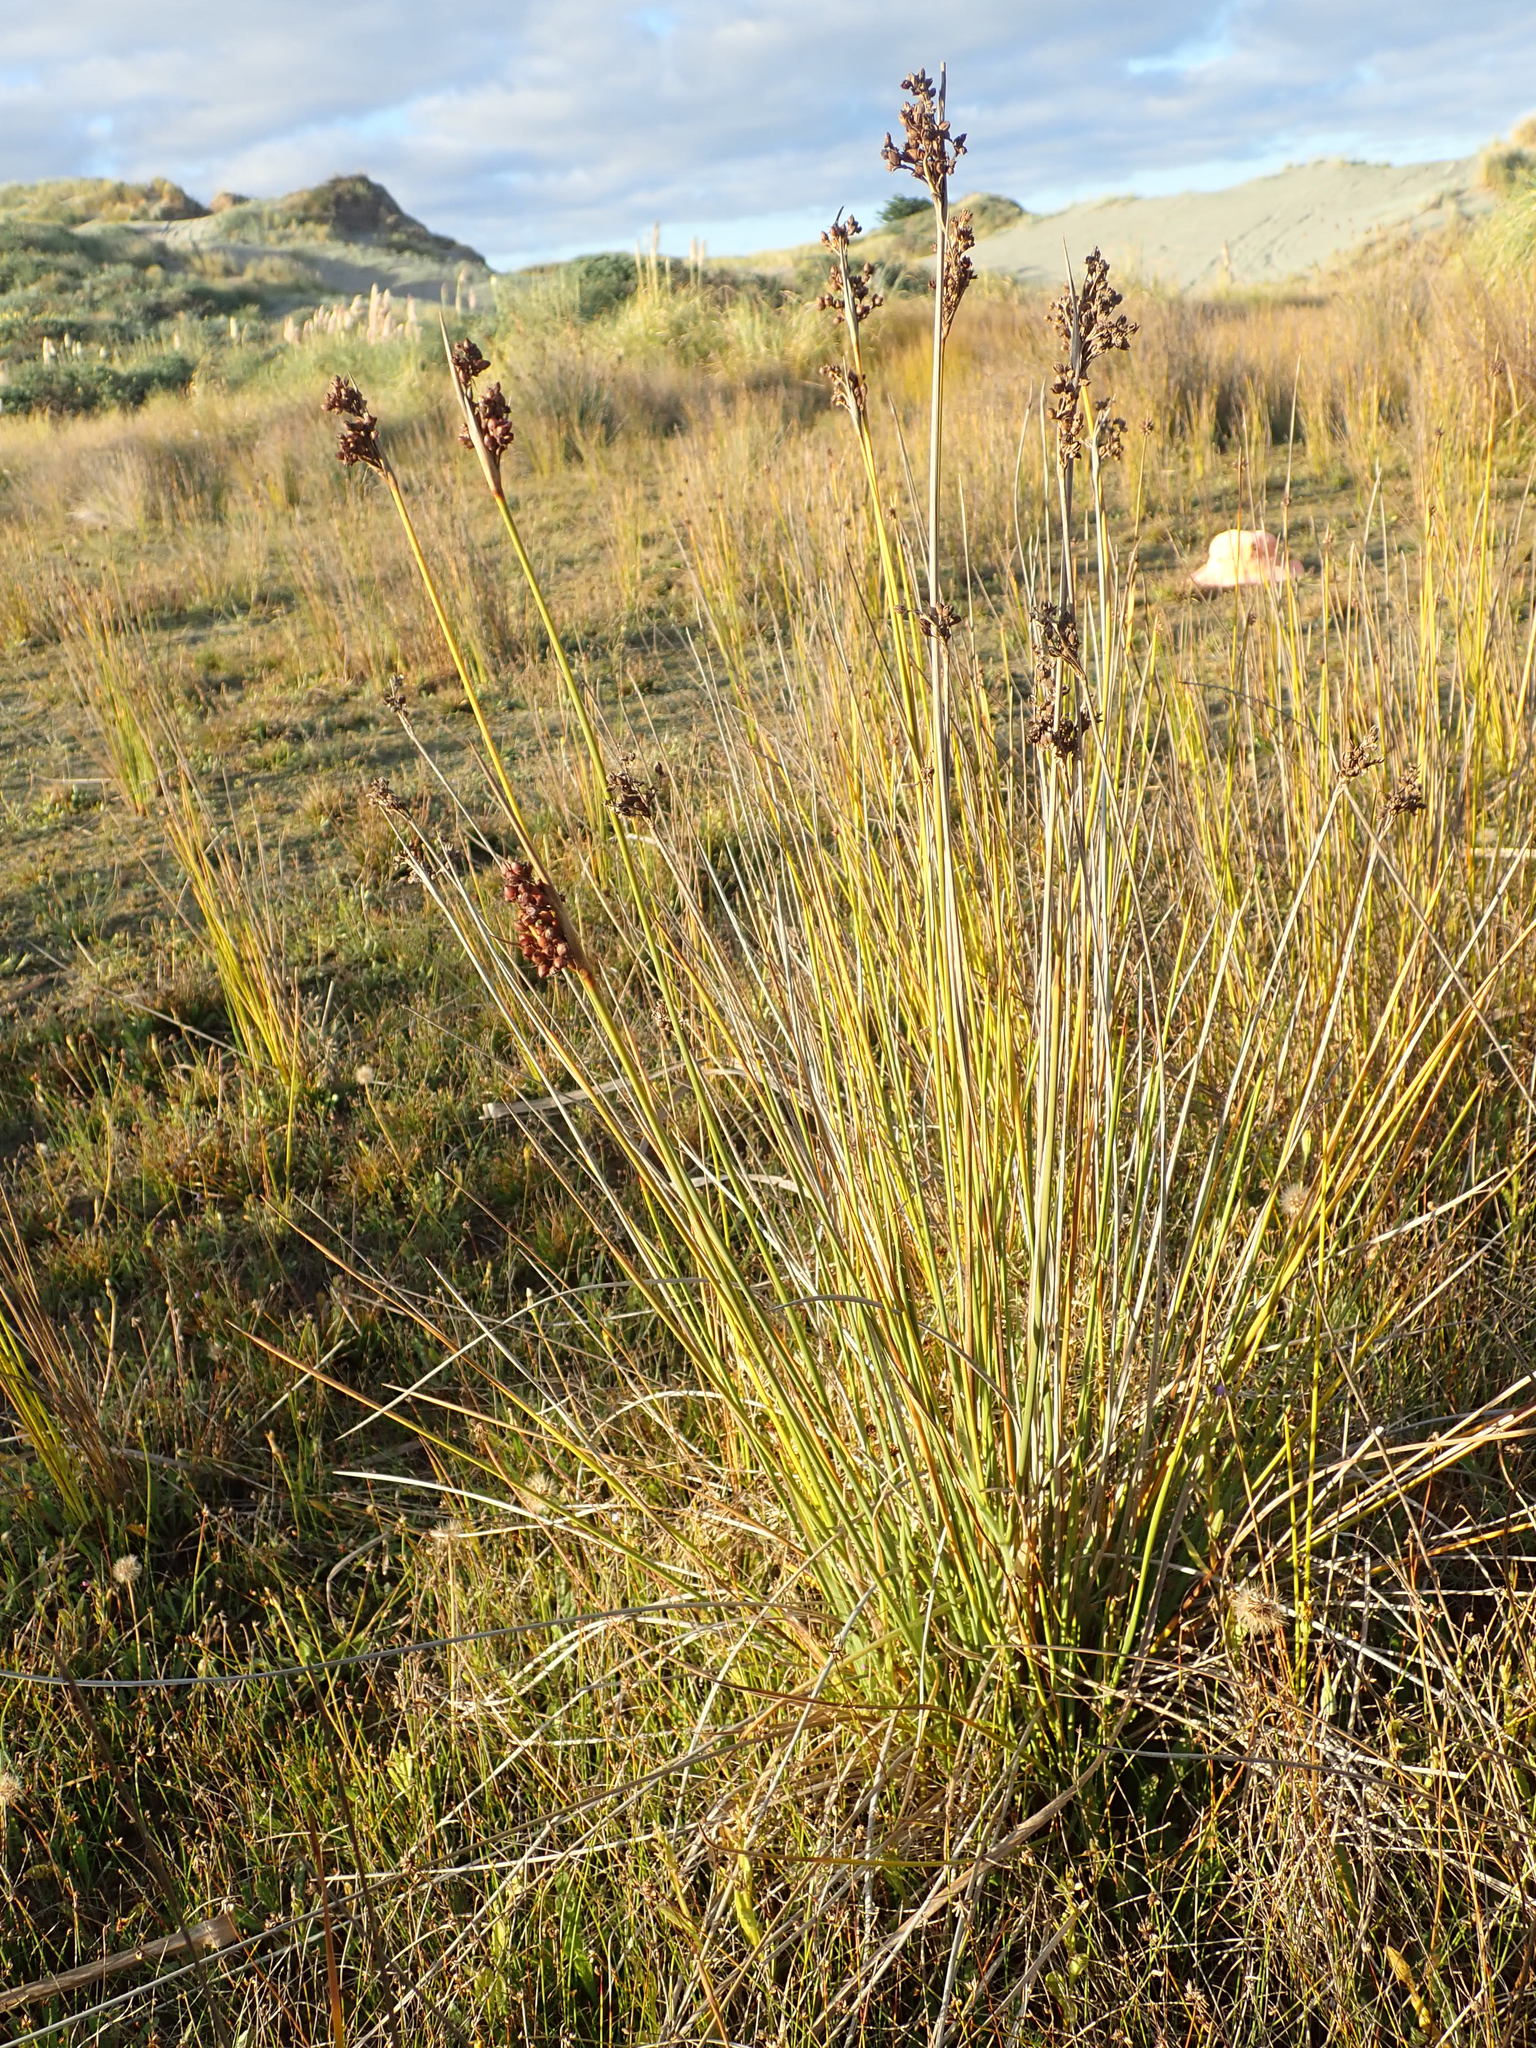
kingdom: Plantae
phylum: Tracheophyta
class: Liliopsida
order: Poales
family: Juncaceae
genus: Juncus
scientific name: Juncus acutus
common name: Sharp rush
